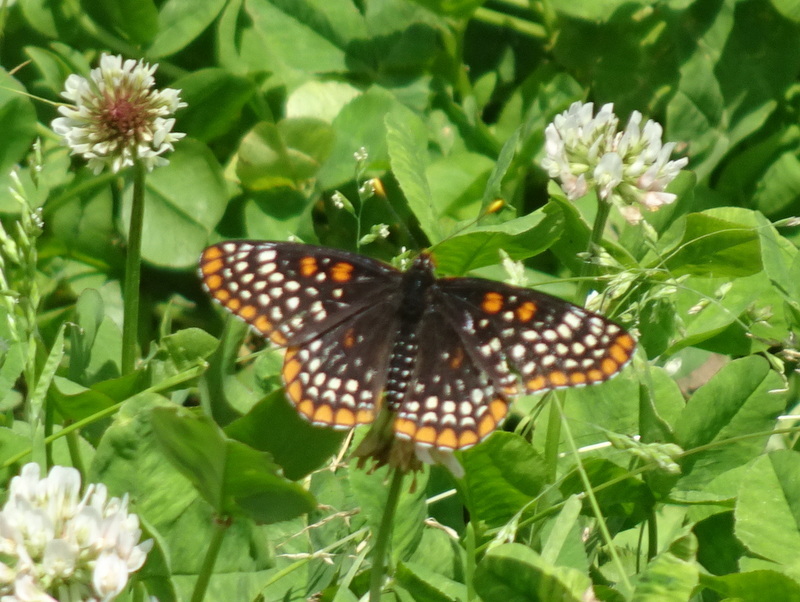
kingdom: Animalia
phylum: Arthropoda
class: Insecta
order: Lepidoptera
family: Nymphalidae
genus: Euphydryas
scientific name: Euphydryas phaeton
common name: Baltimore checkerspot
